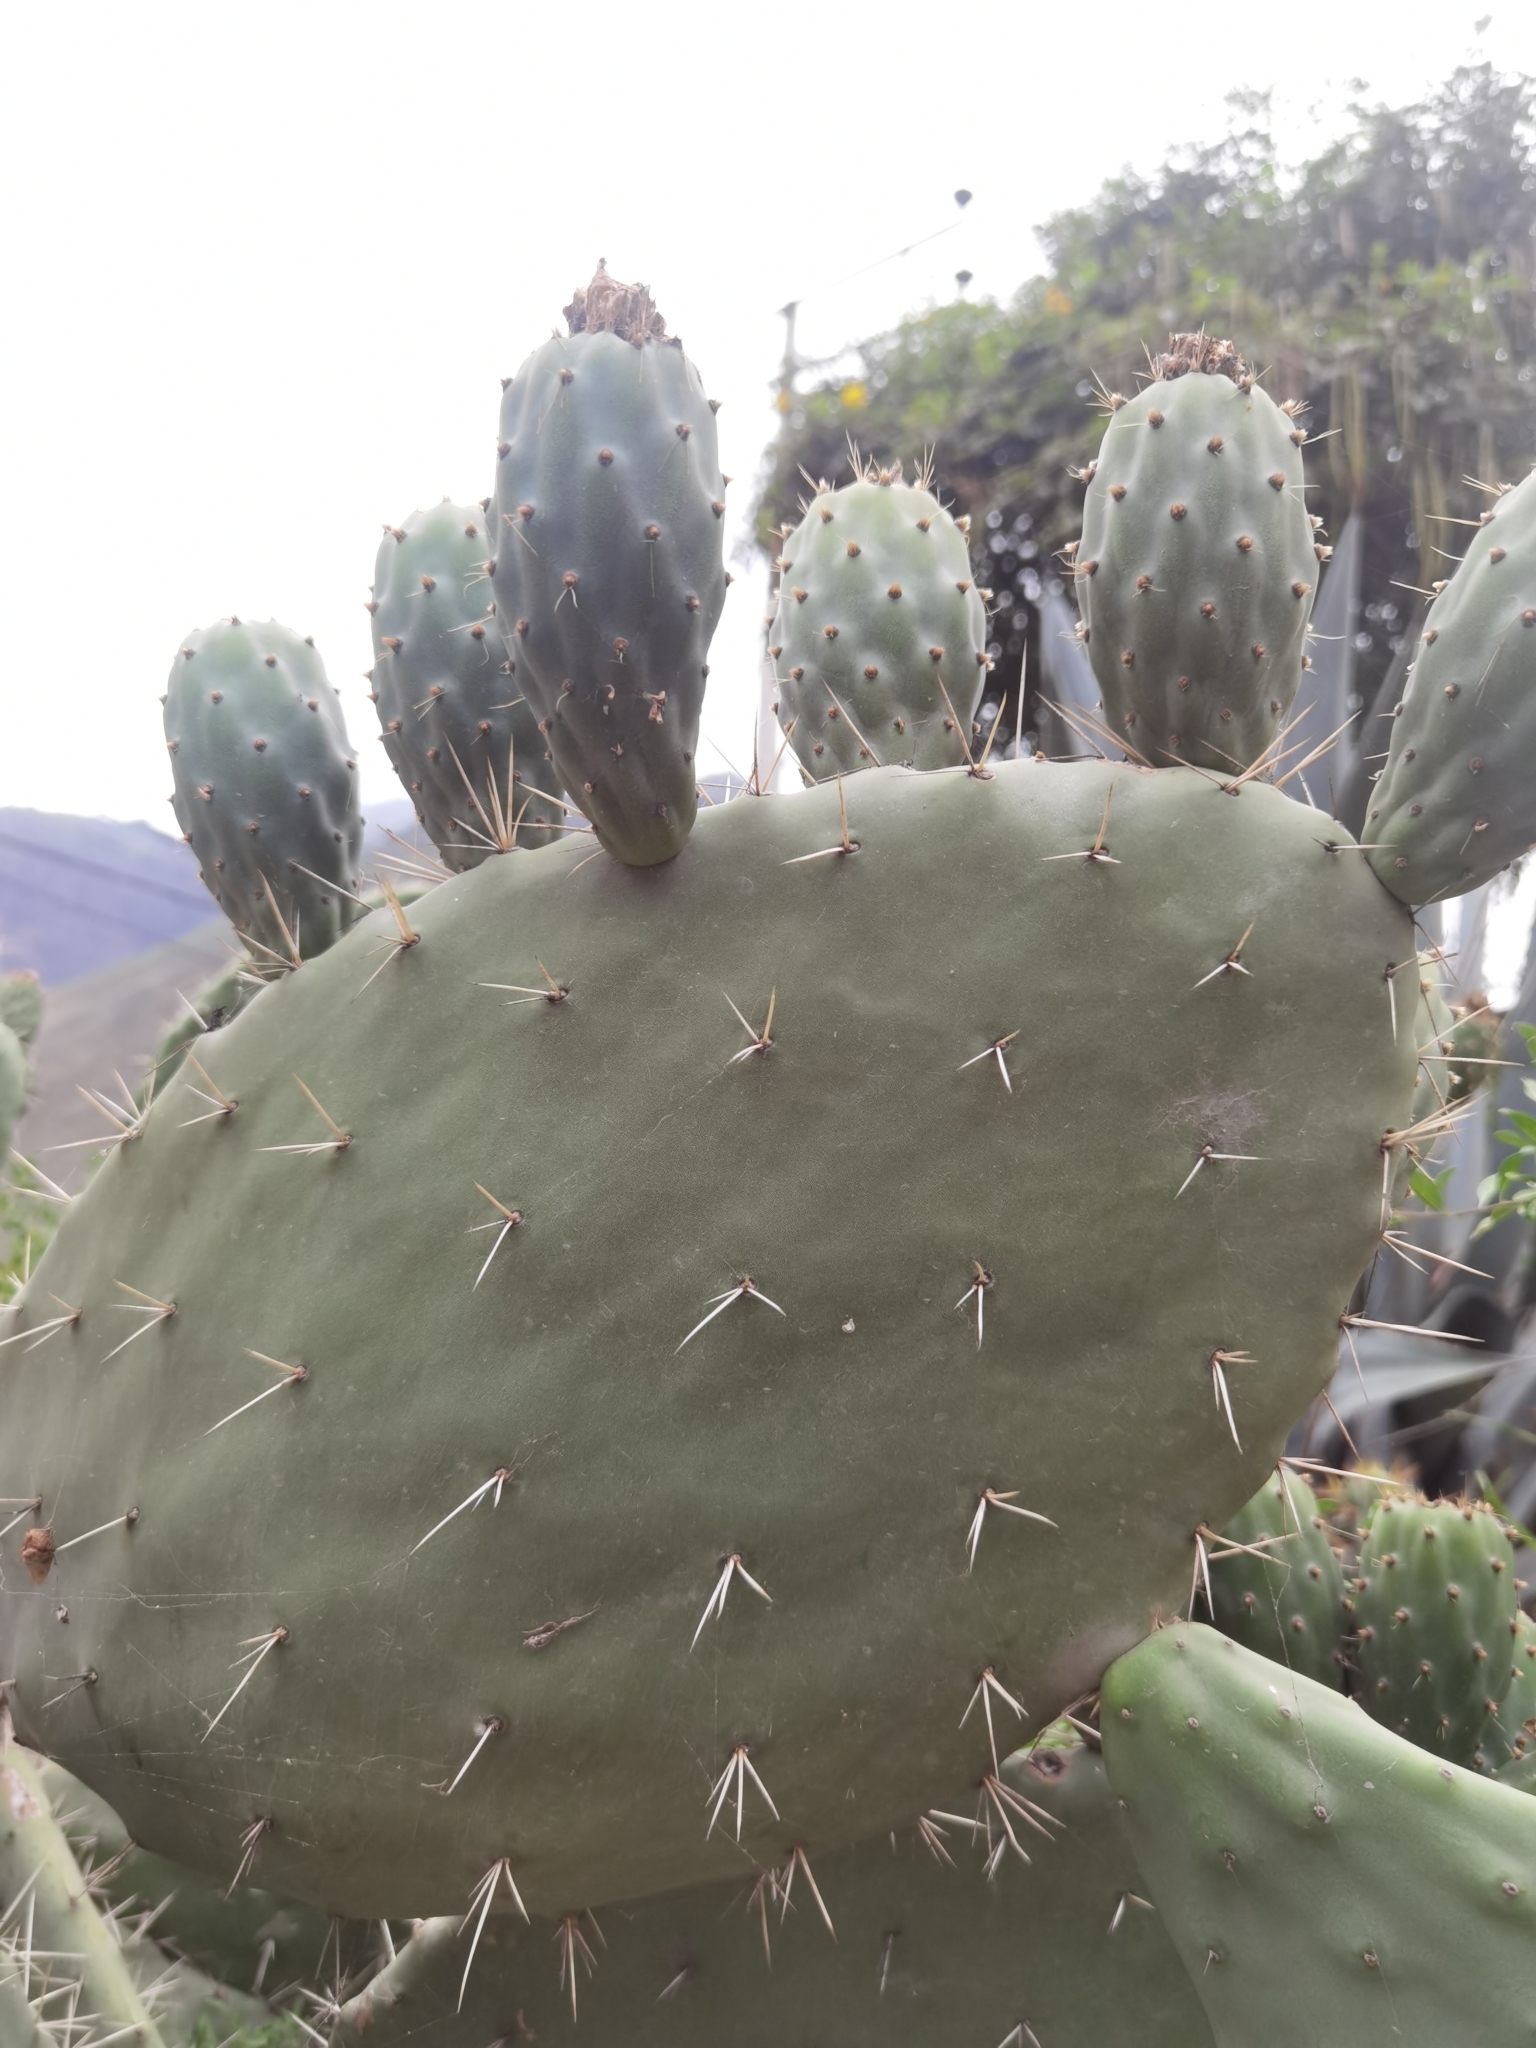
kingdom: Plantae
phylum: Tracheophyta
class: Magnoliopsida
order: Caryophyllales
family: Cactaceae
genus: Opuntia
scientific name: Opuntia ficus-indica
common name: Barbary fig
